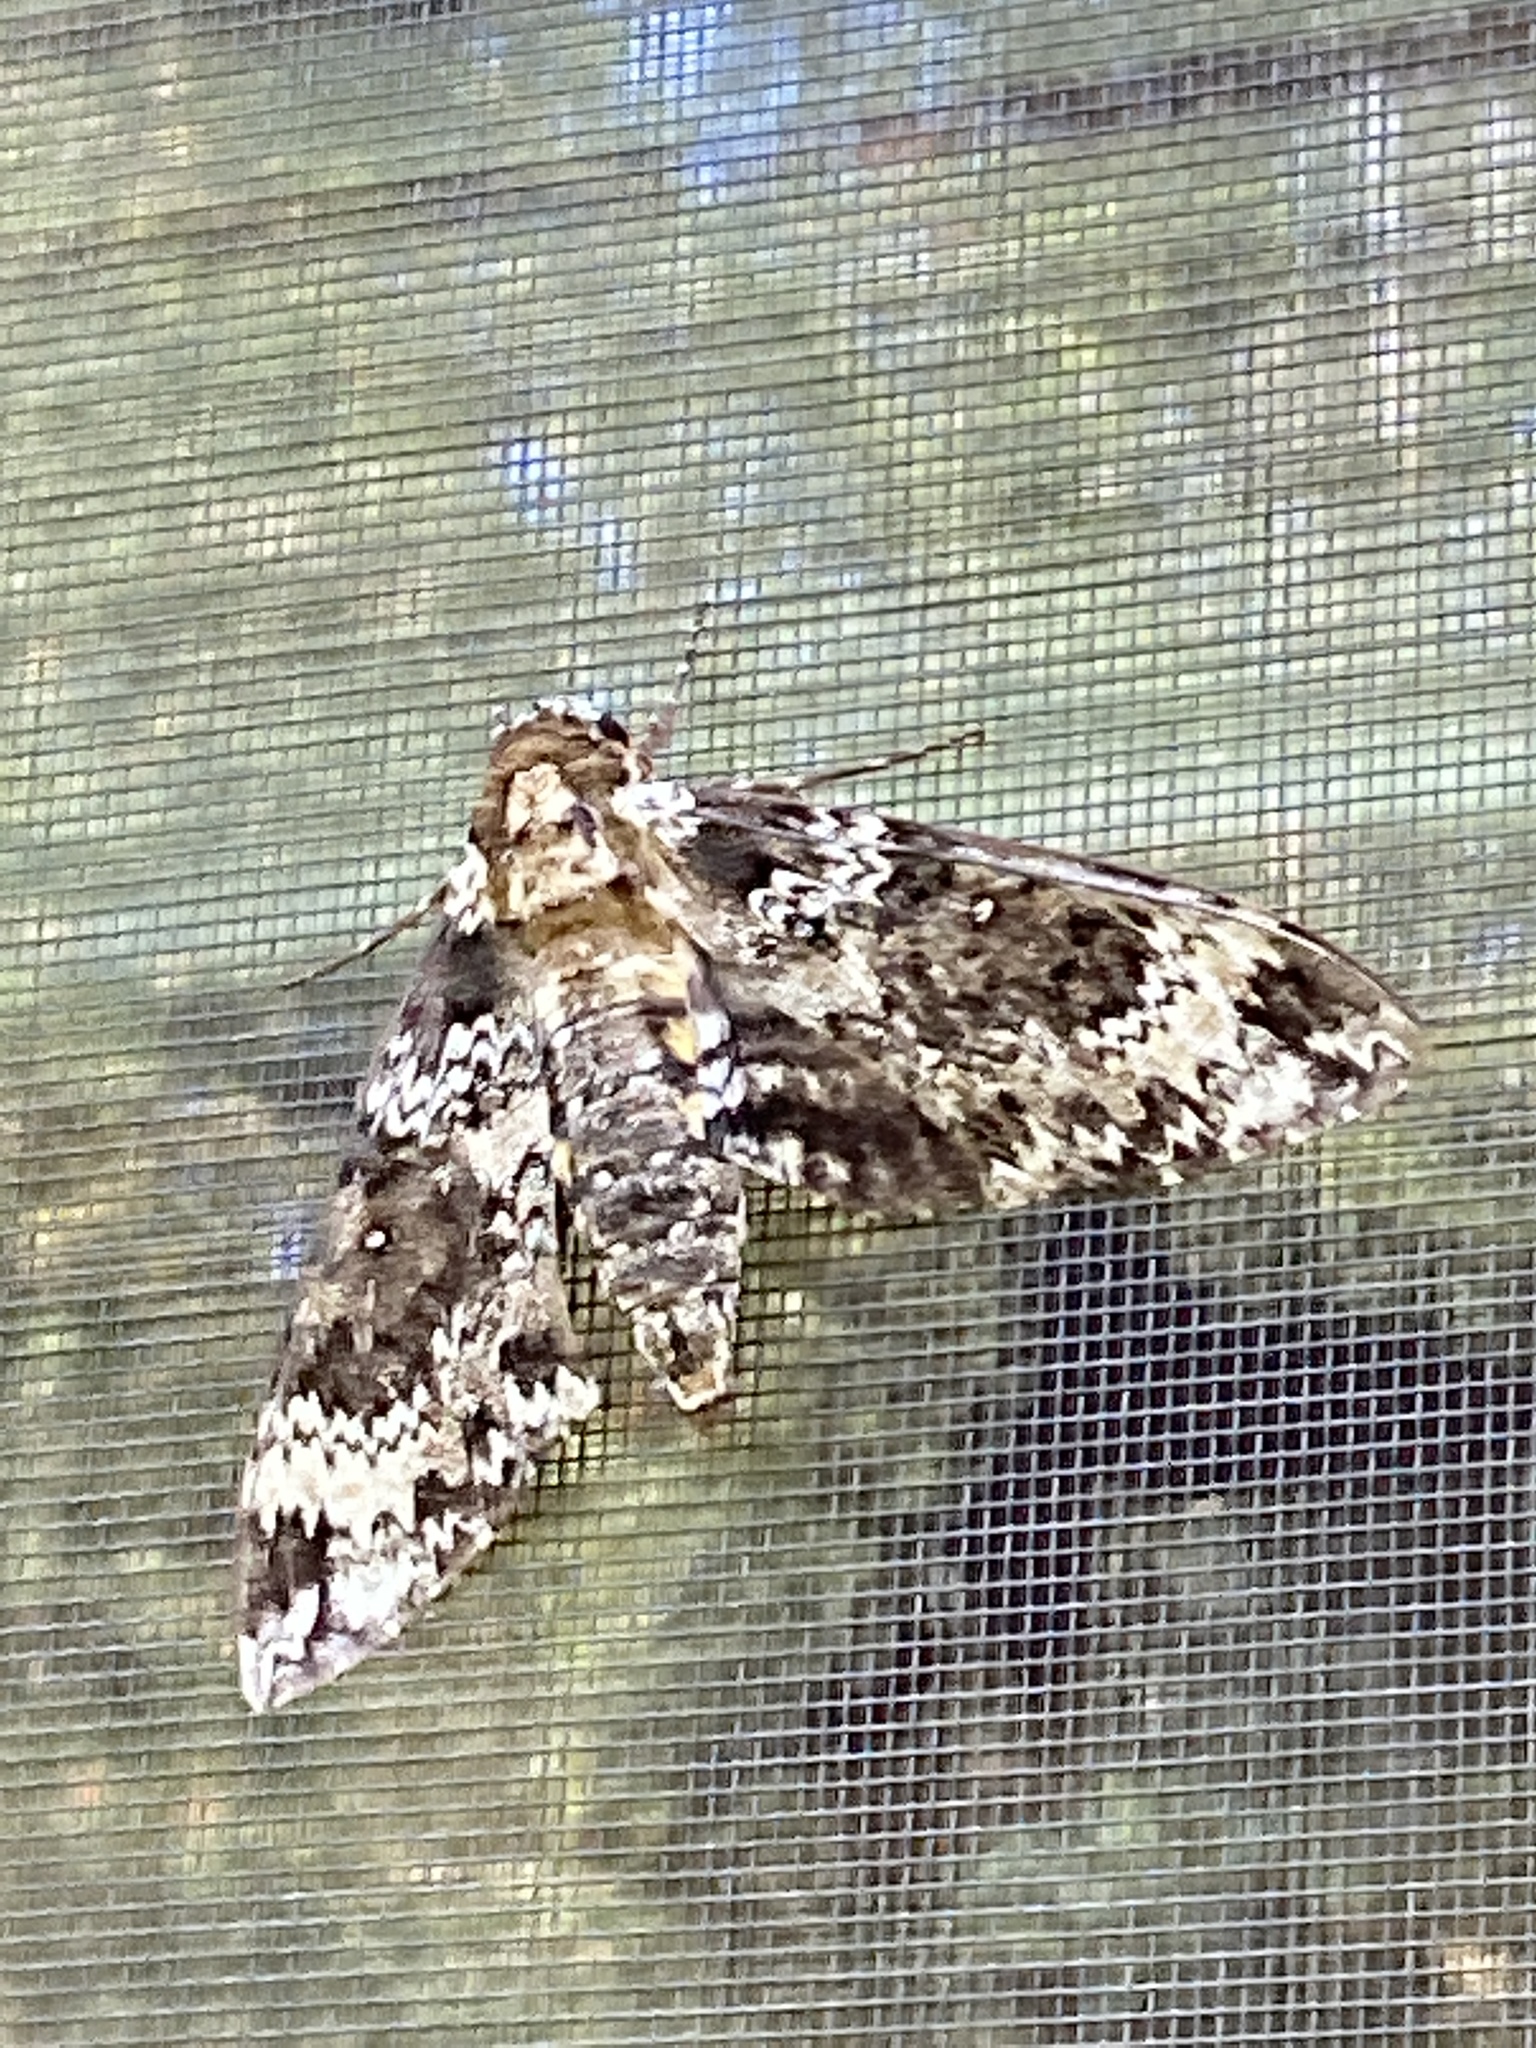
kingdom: Animalia
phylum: Arthropoda
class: Insecta
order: Lepidoptera
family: Sphingidae
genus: Manduca
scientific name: Manduca rustica
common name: Rustic sphinx
